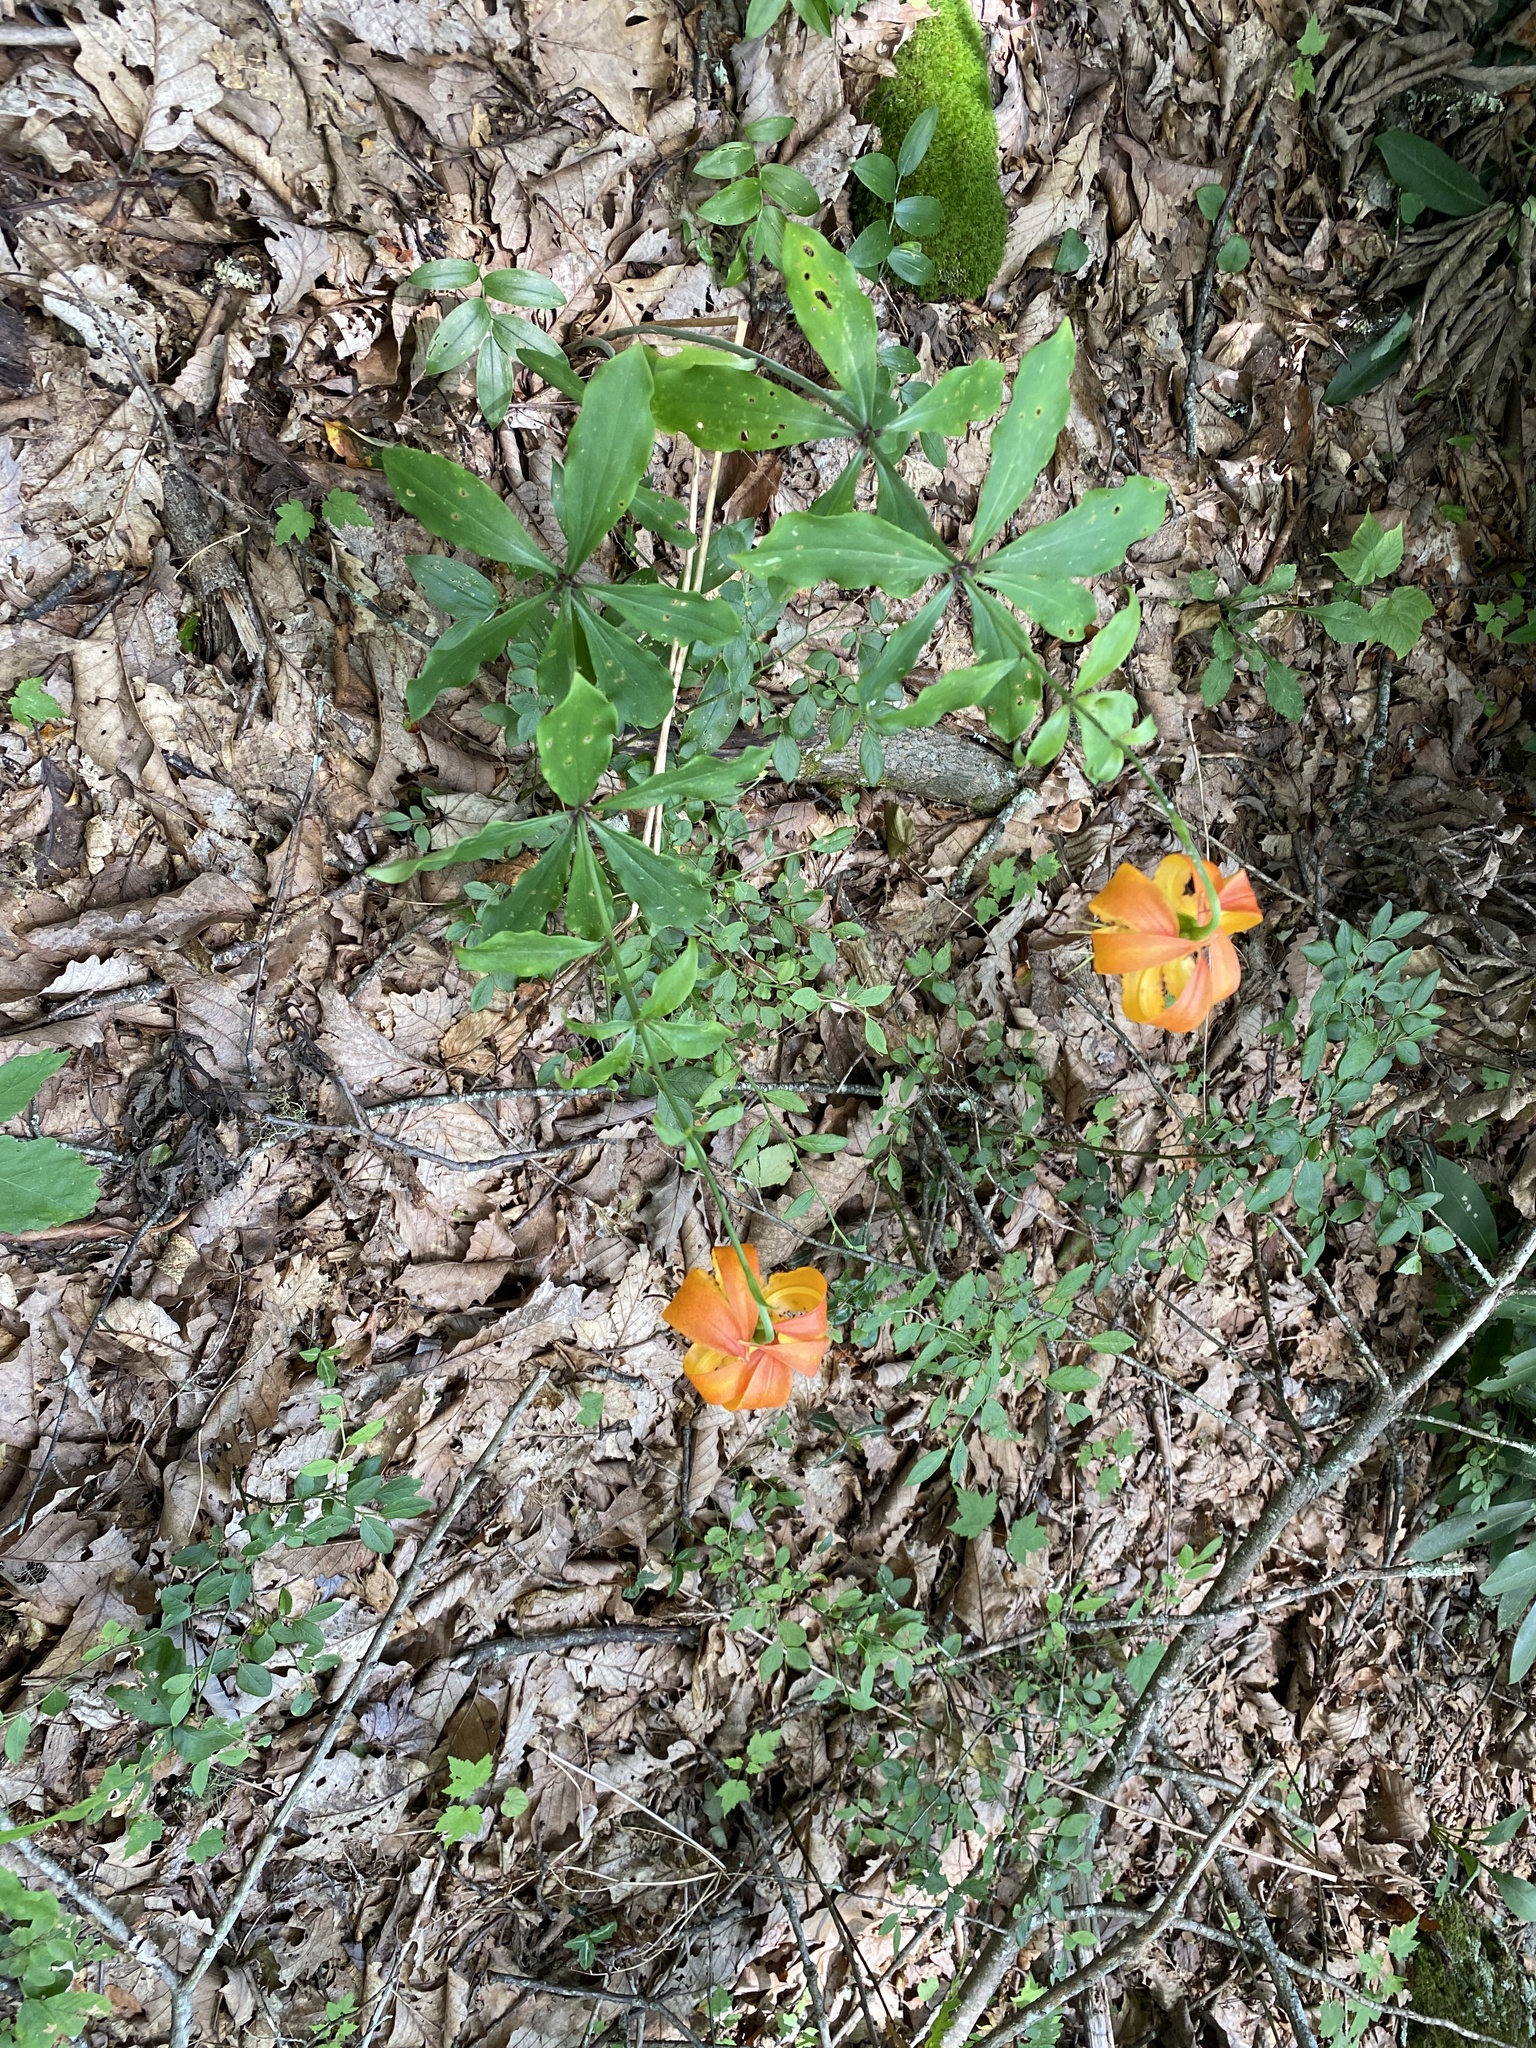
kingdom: Plantae
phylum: Tracheophyta
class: Liliopsida
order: Liliales
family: Liliaceae
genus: Lilium
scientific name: Lilium michauxii
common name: Carolina lily
